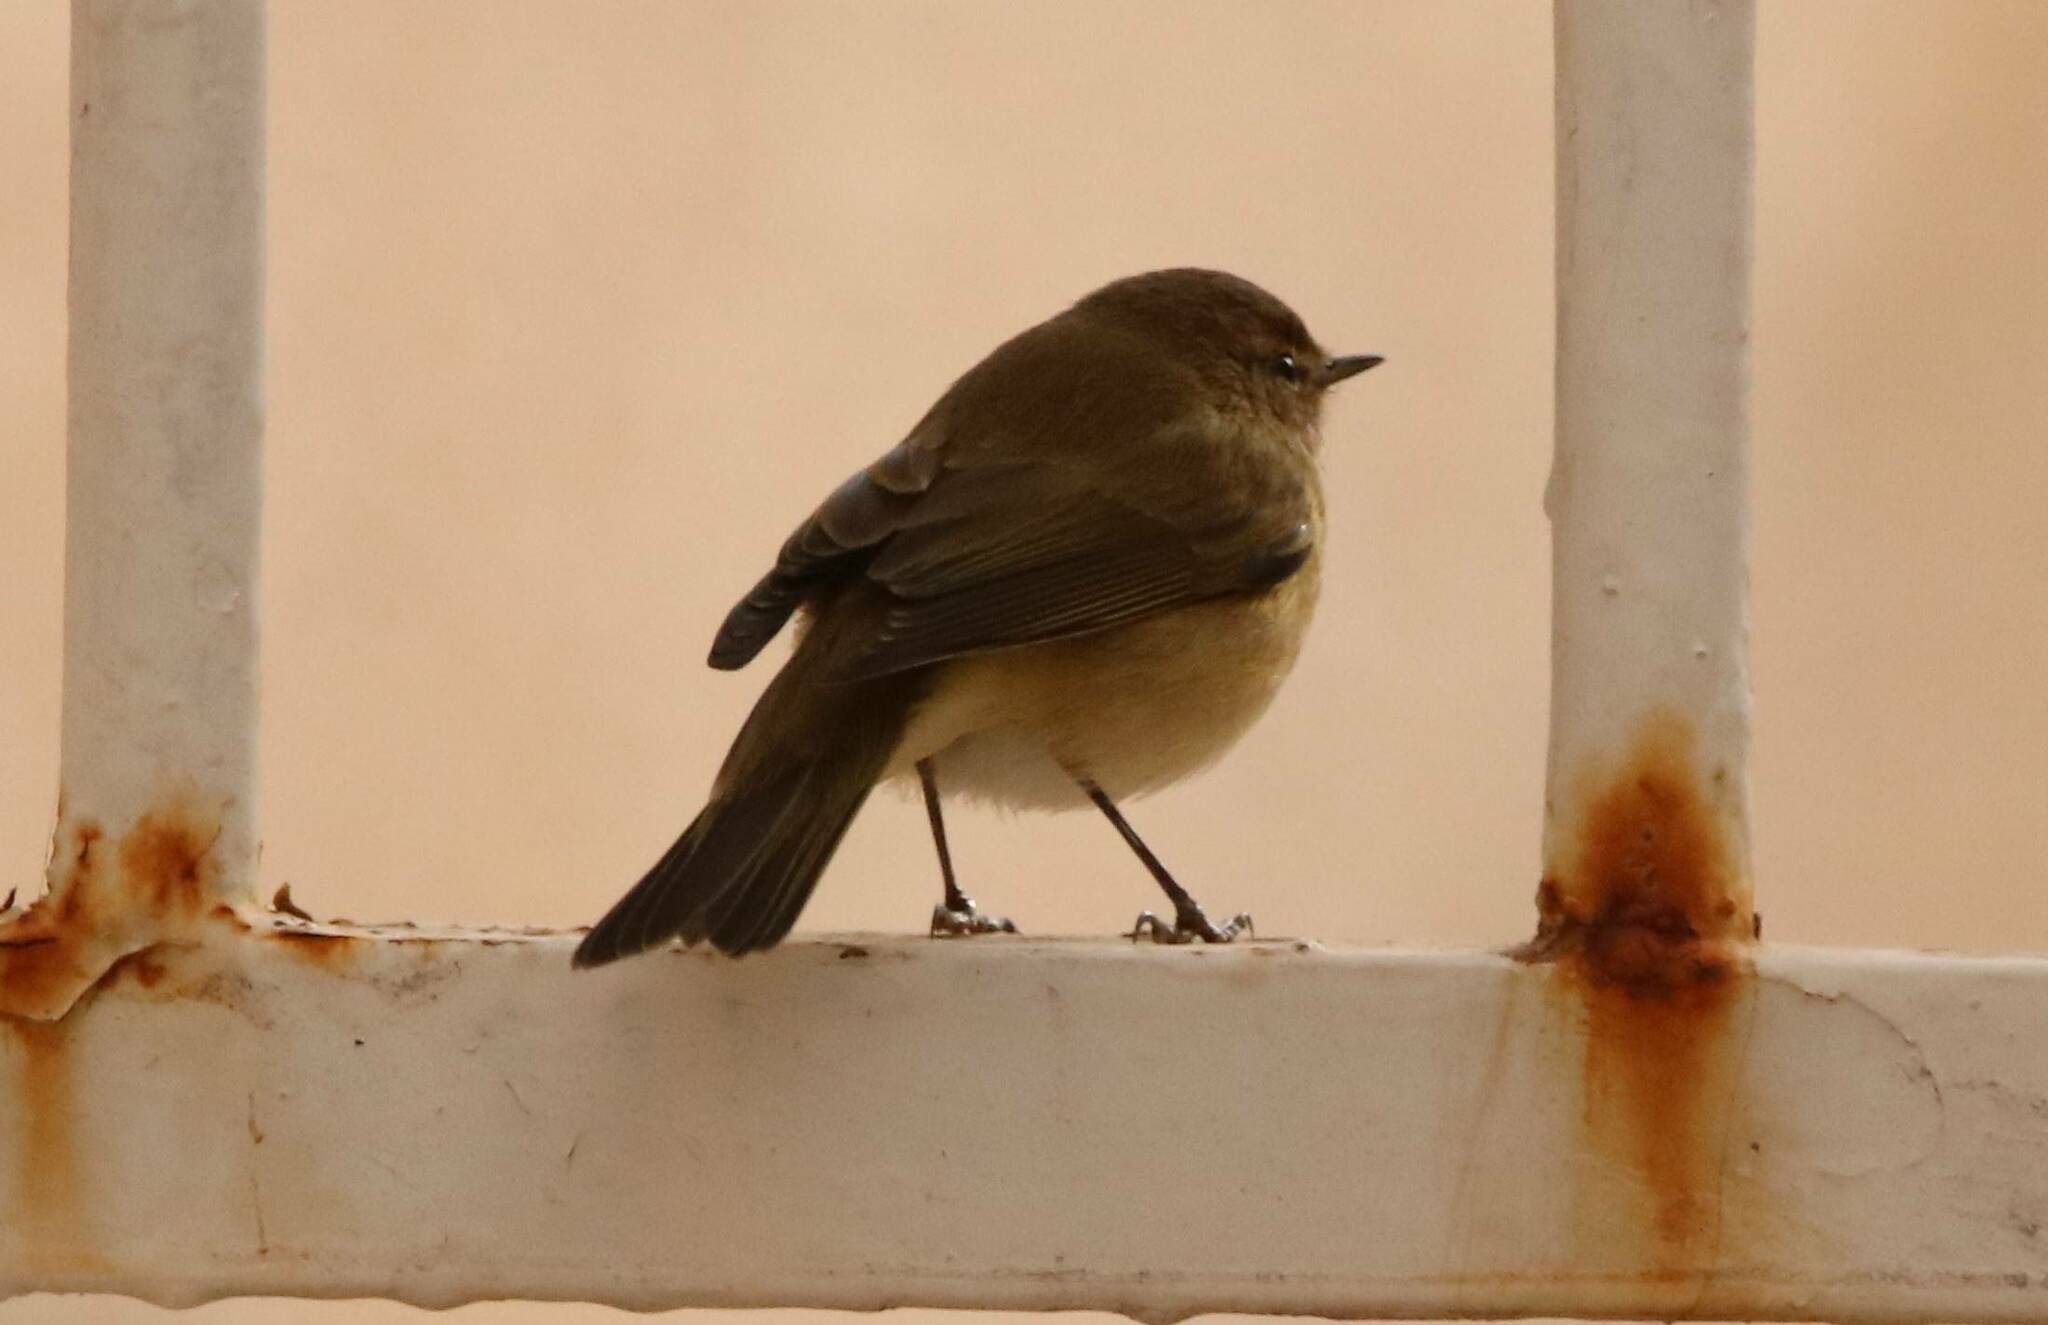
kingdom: Animalia
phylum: Chordata
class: Aves
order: Passeriformes
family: Phylloscopidae
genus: Phylloscopus
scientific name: Phylloscopus collybita
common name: Common chiffchaff
